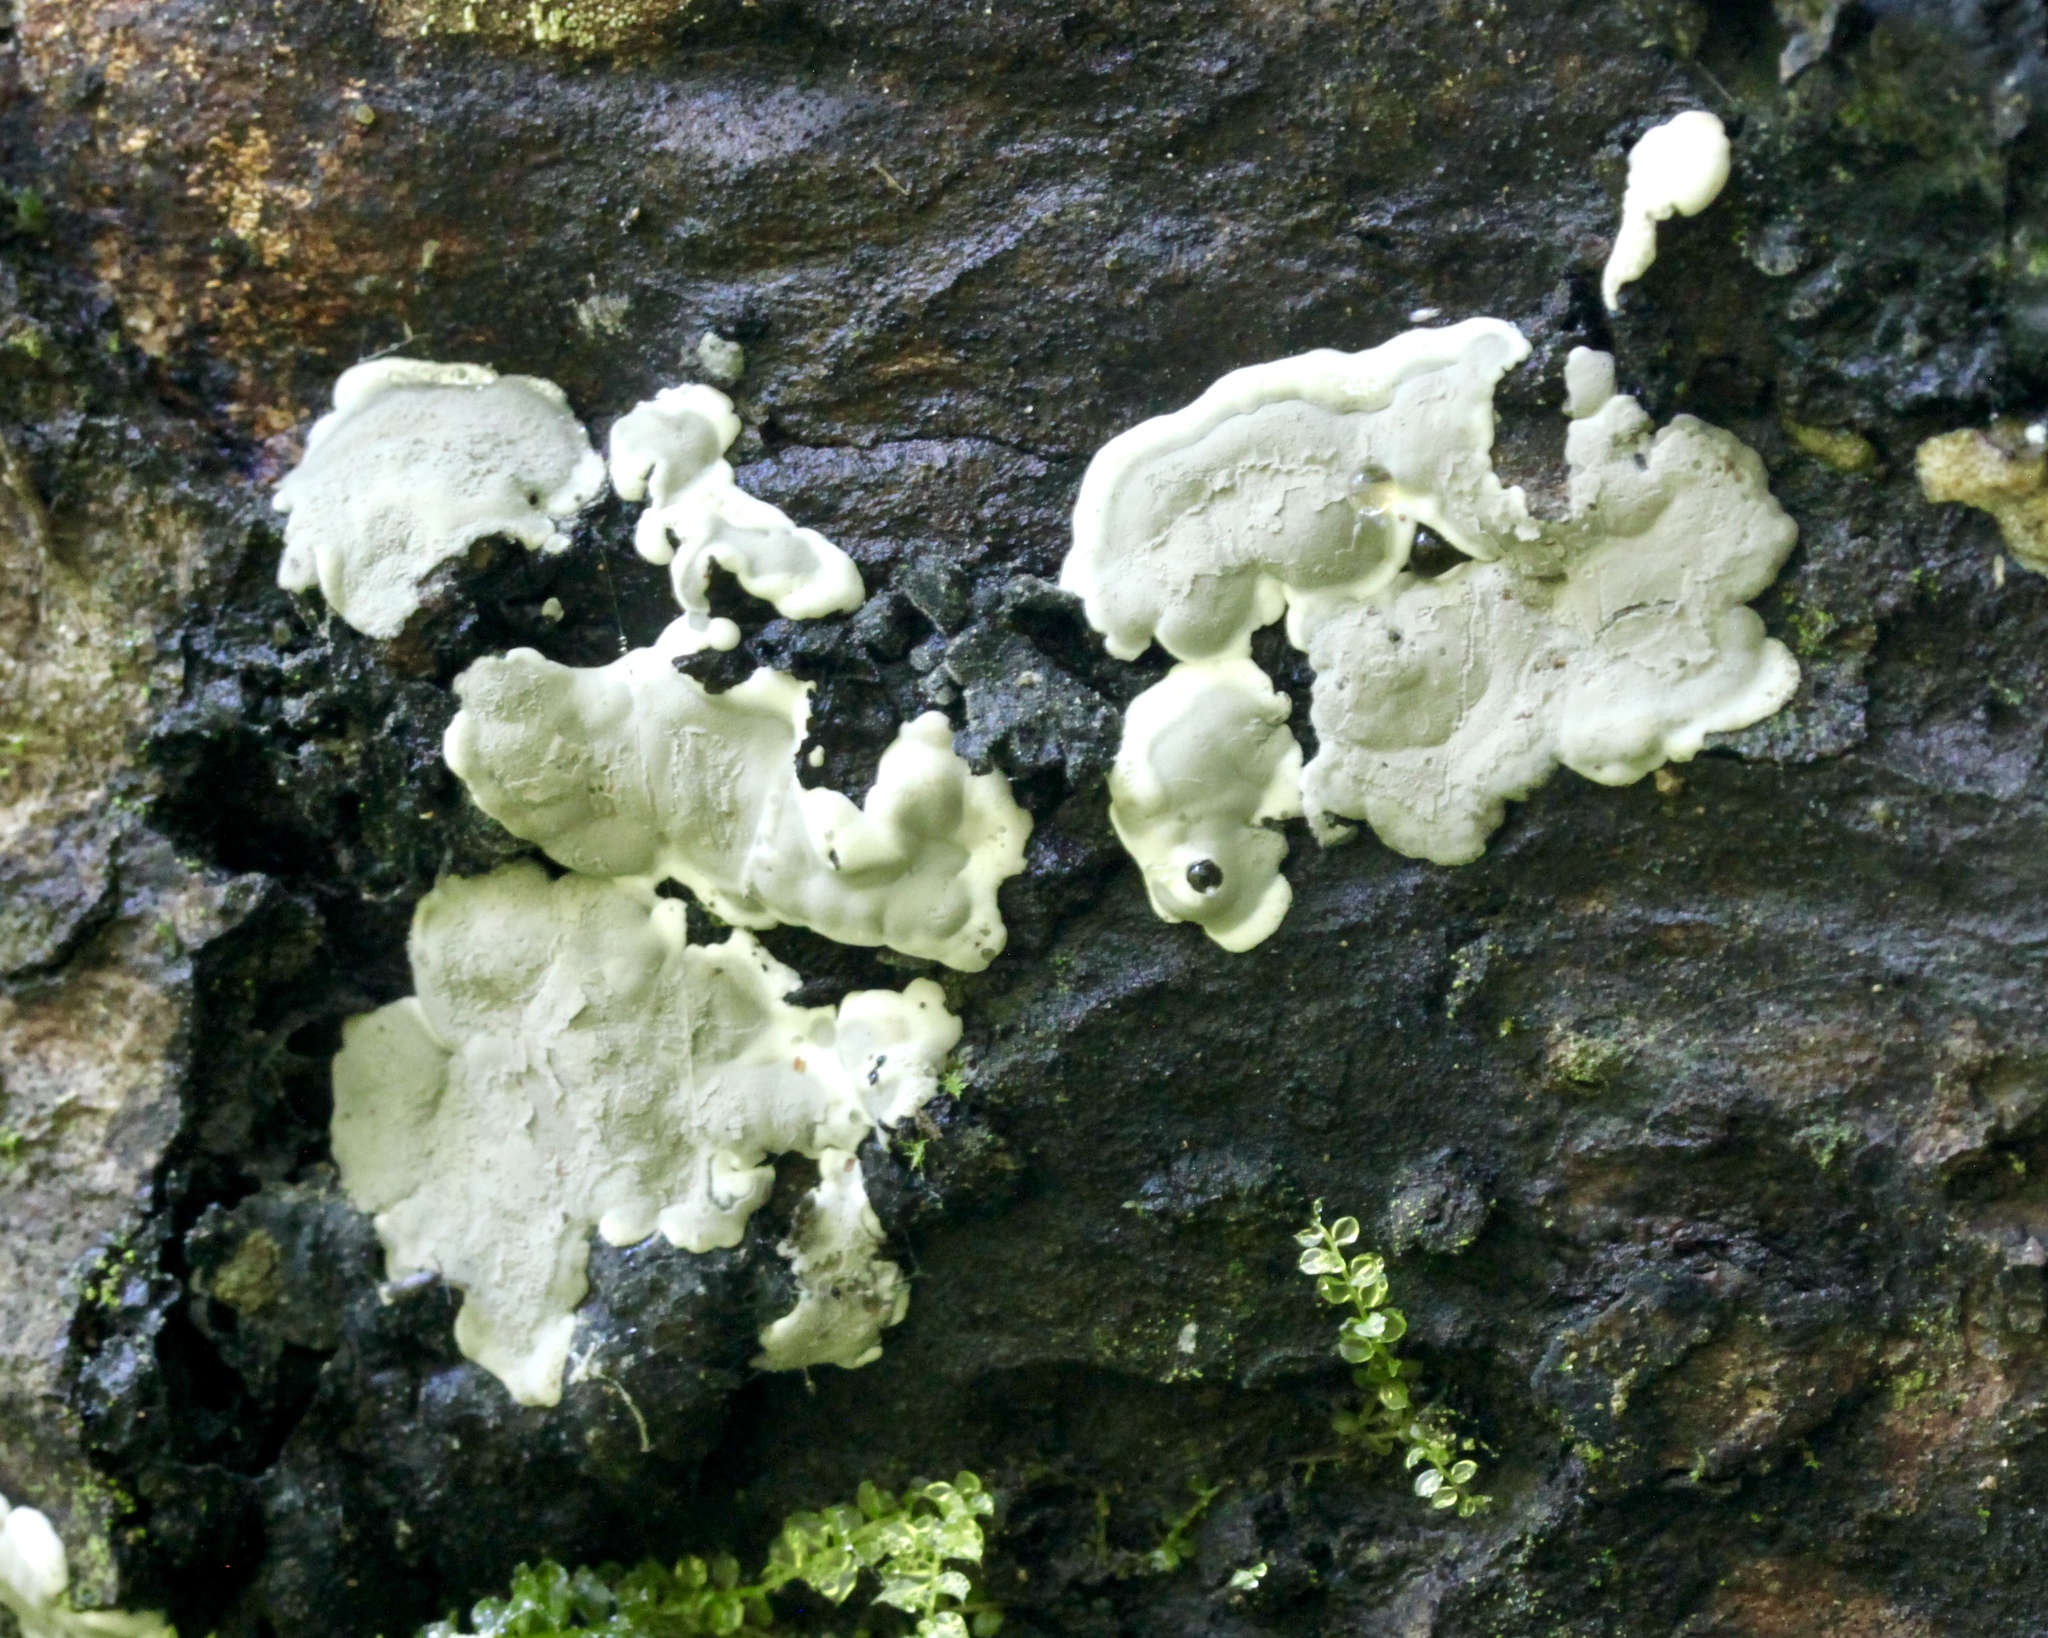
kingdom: Fungi
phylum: Ascomycota
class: Sordariomycetes
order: Xylariales
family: Xylariaceae
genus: Kretzschmaria
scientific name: Kretzschmaria deusta
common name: Brittle cinder
